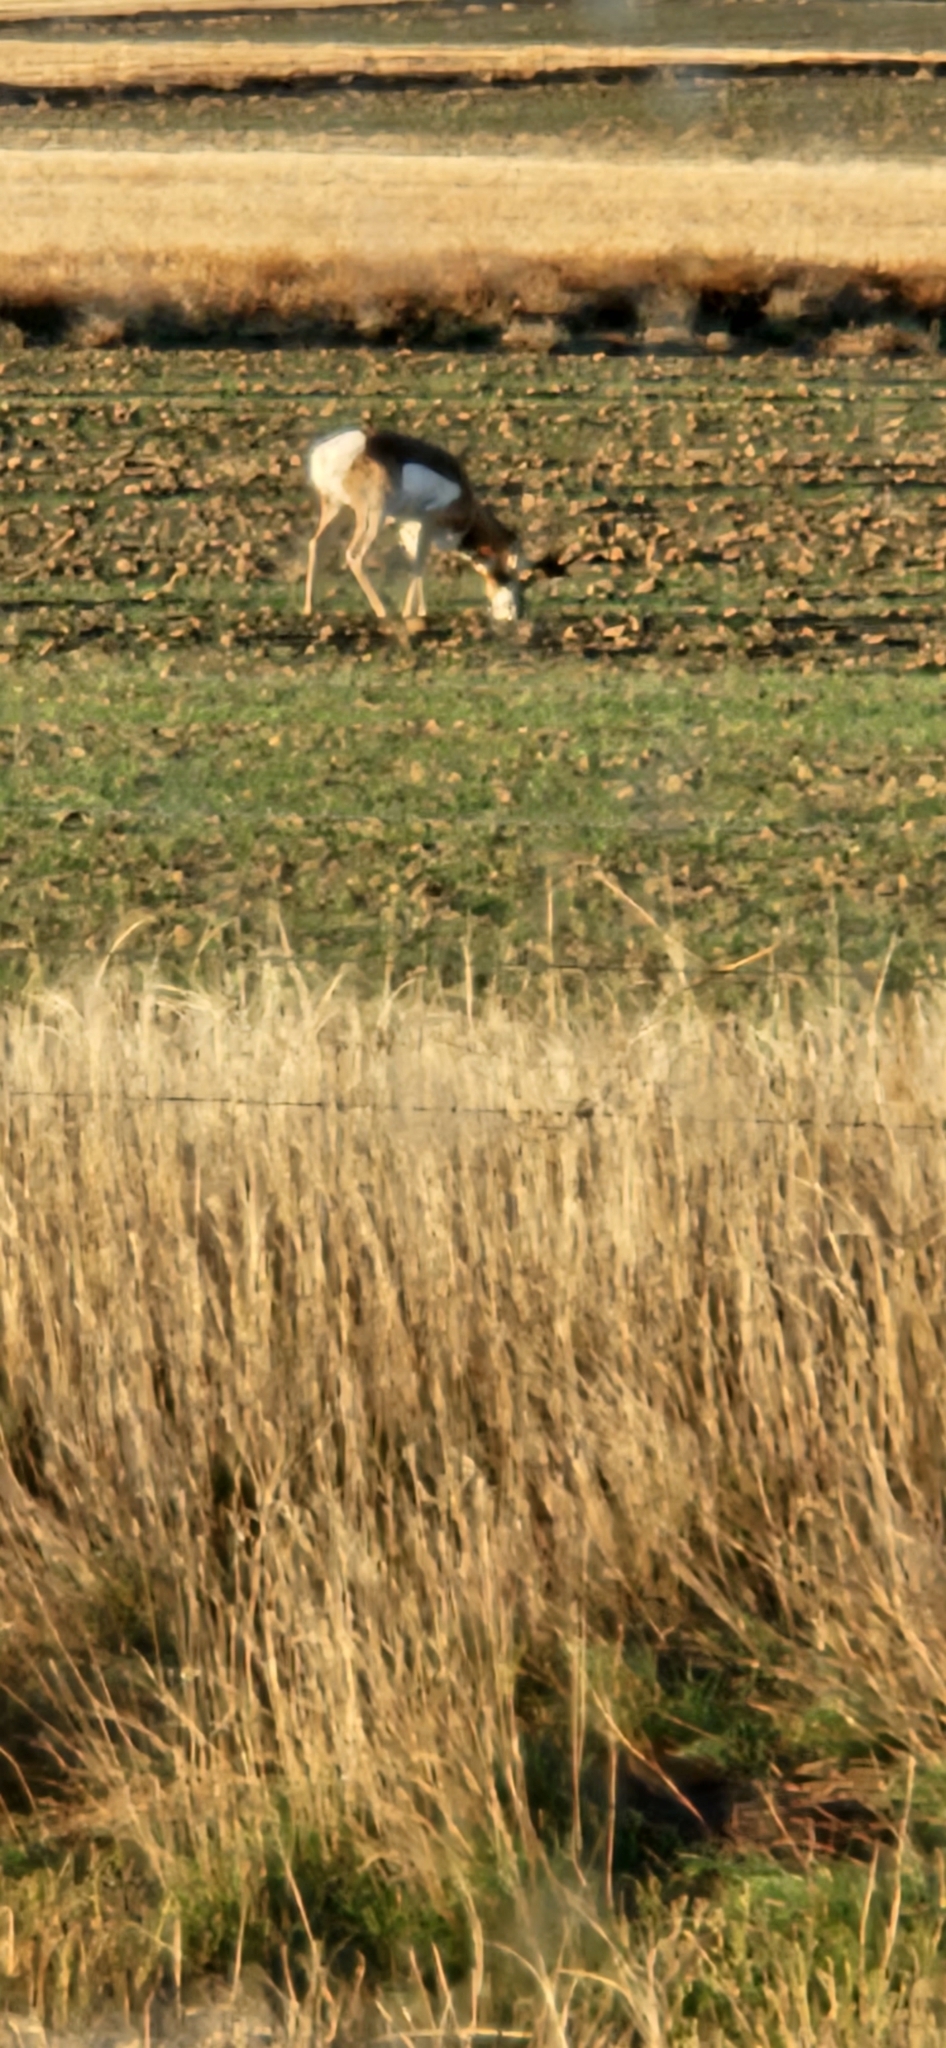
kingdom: Animalia
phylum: Chordata
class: Mammalia
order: Artiodactyla
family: Antilocapridae
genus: Antilocapra
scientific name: Antilocapra americana
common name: Pronghorn
